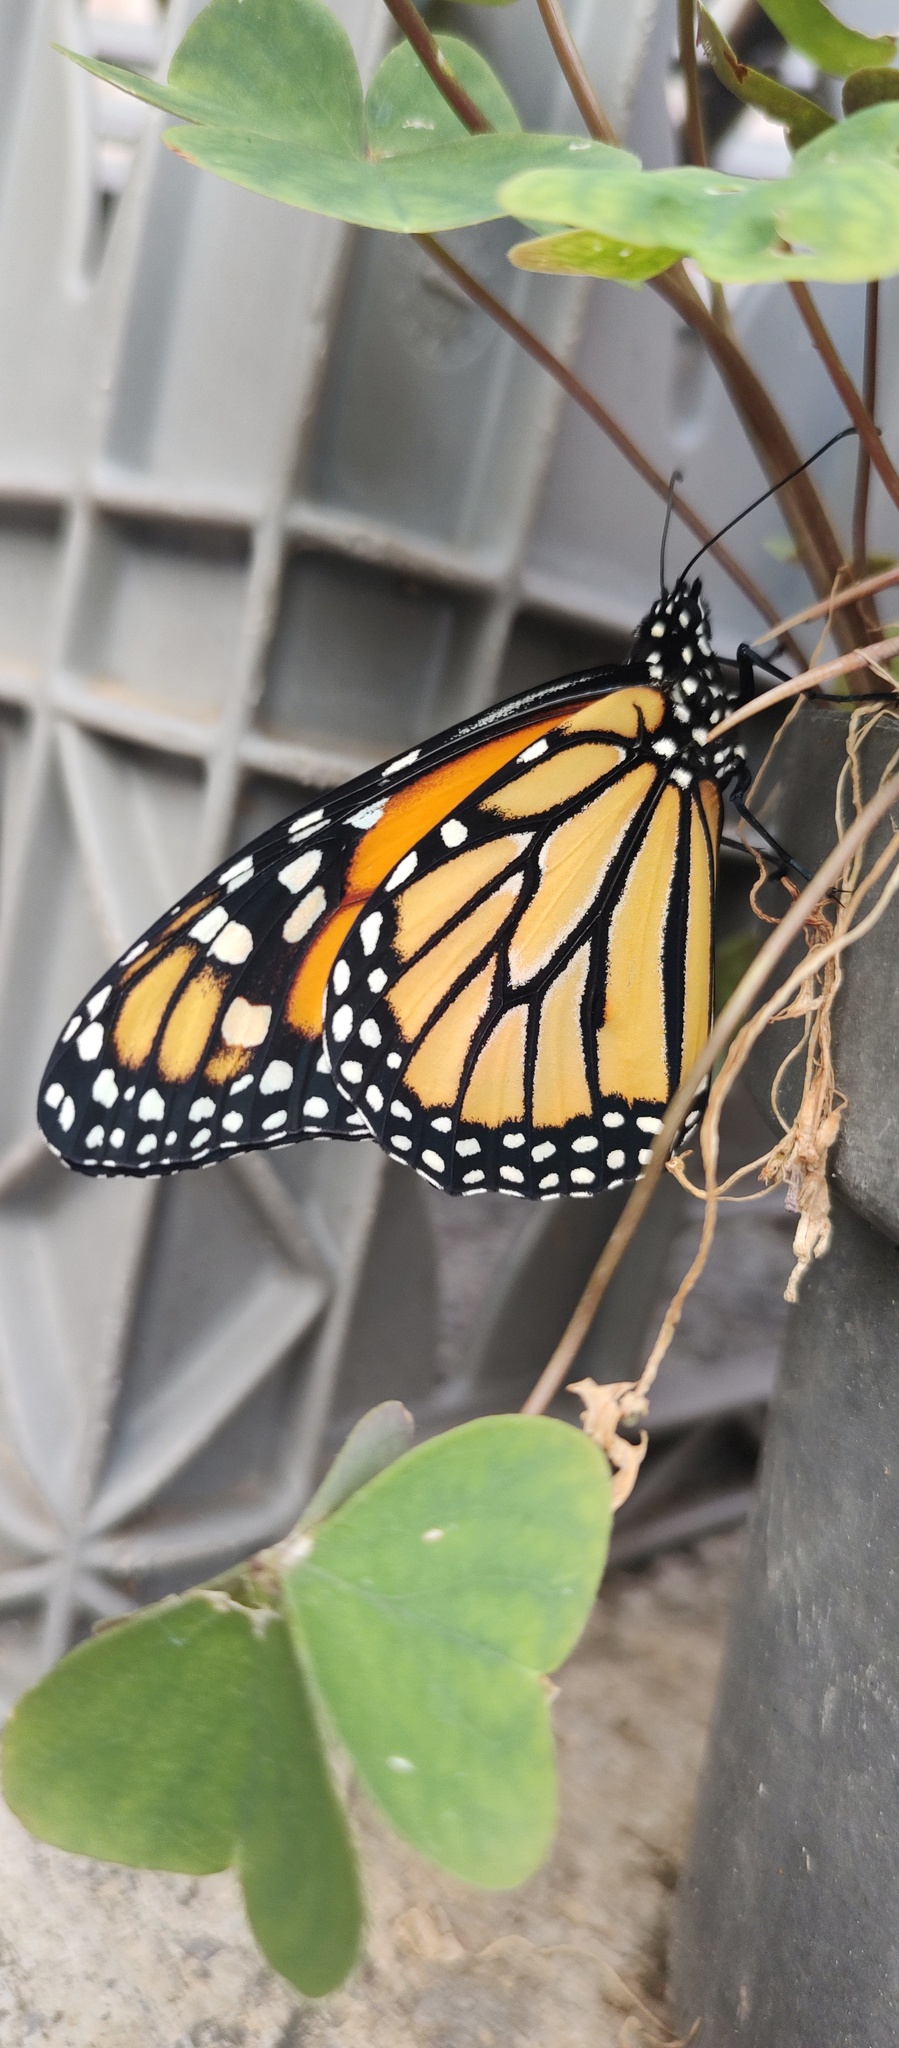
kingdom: Animalia
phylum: Arthropoda
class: Insecta
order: Lepidoptera
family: Nymphalidae
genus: Danaus
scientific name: Danaus plexippus
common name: Monarch
